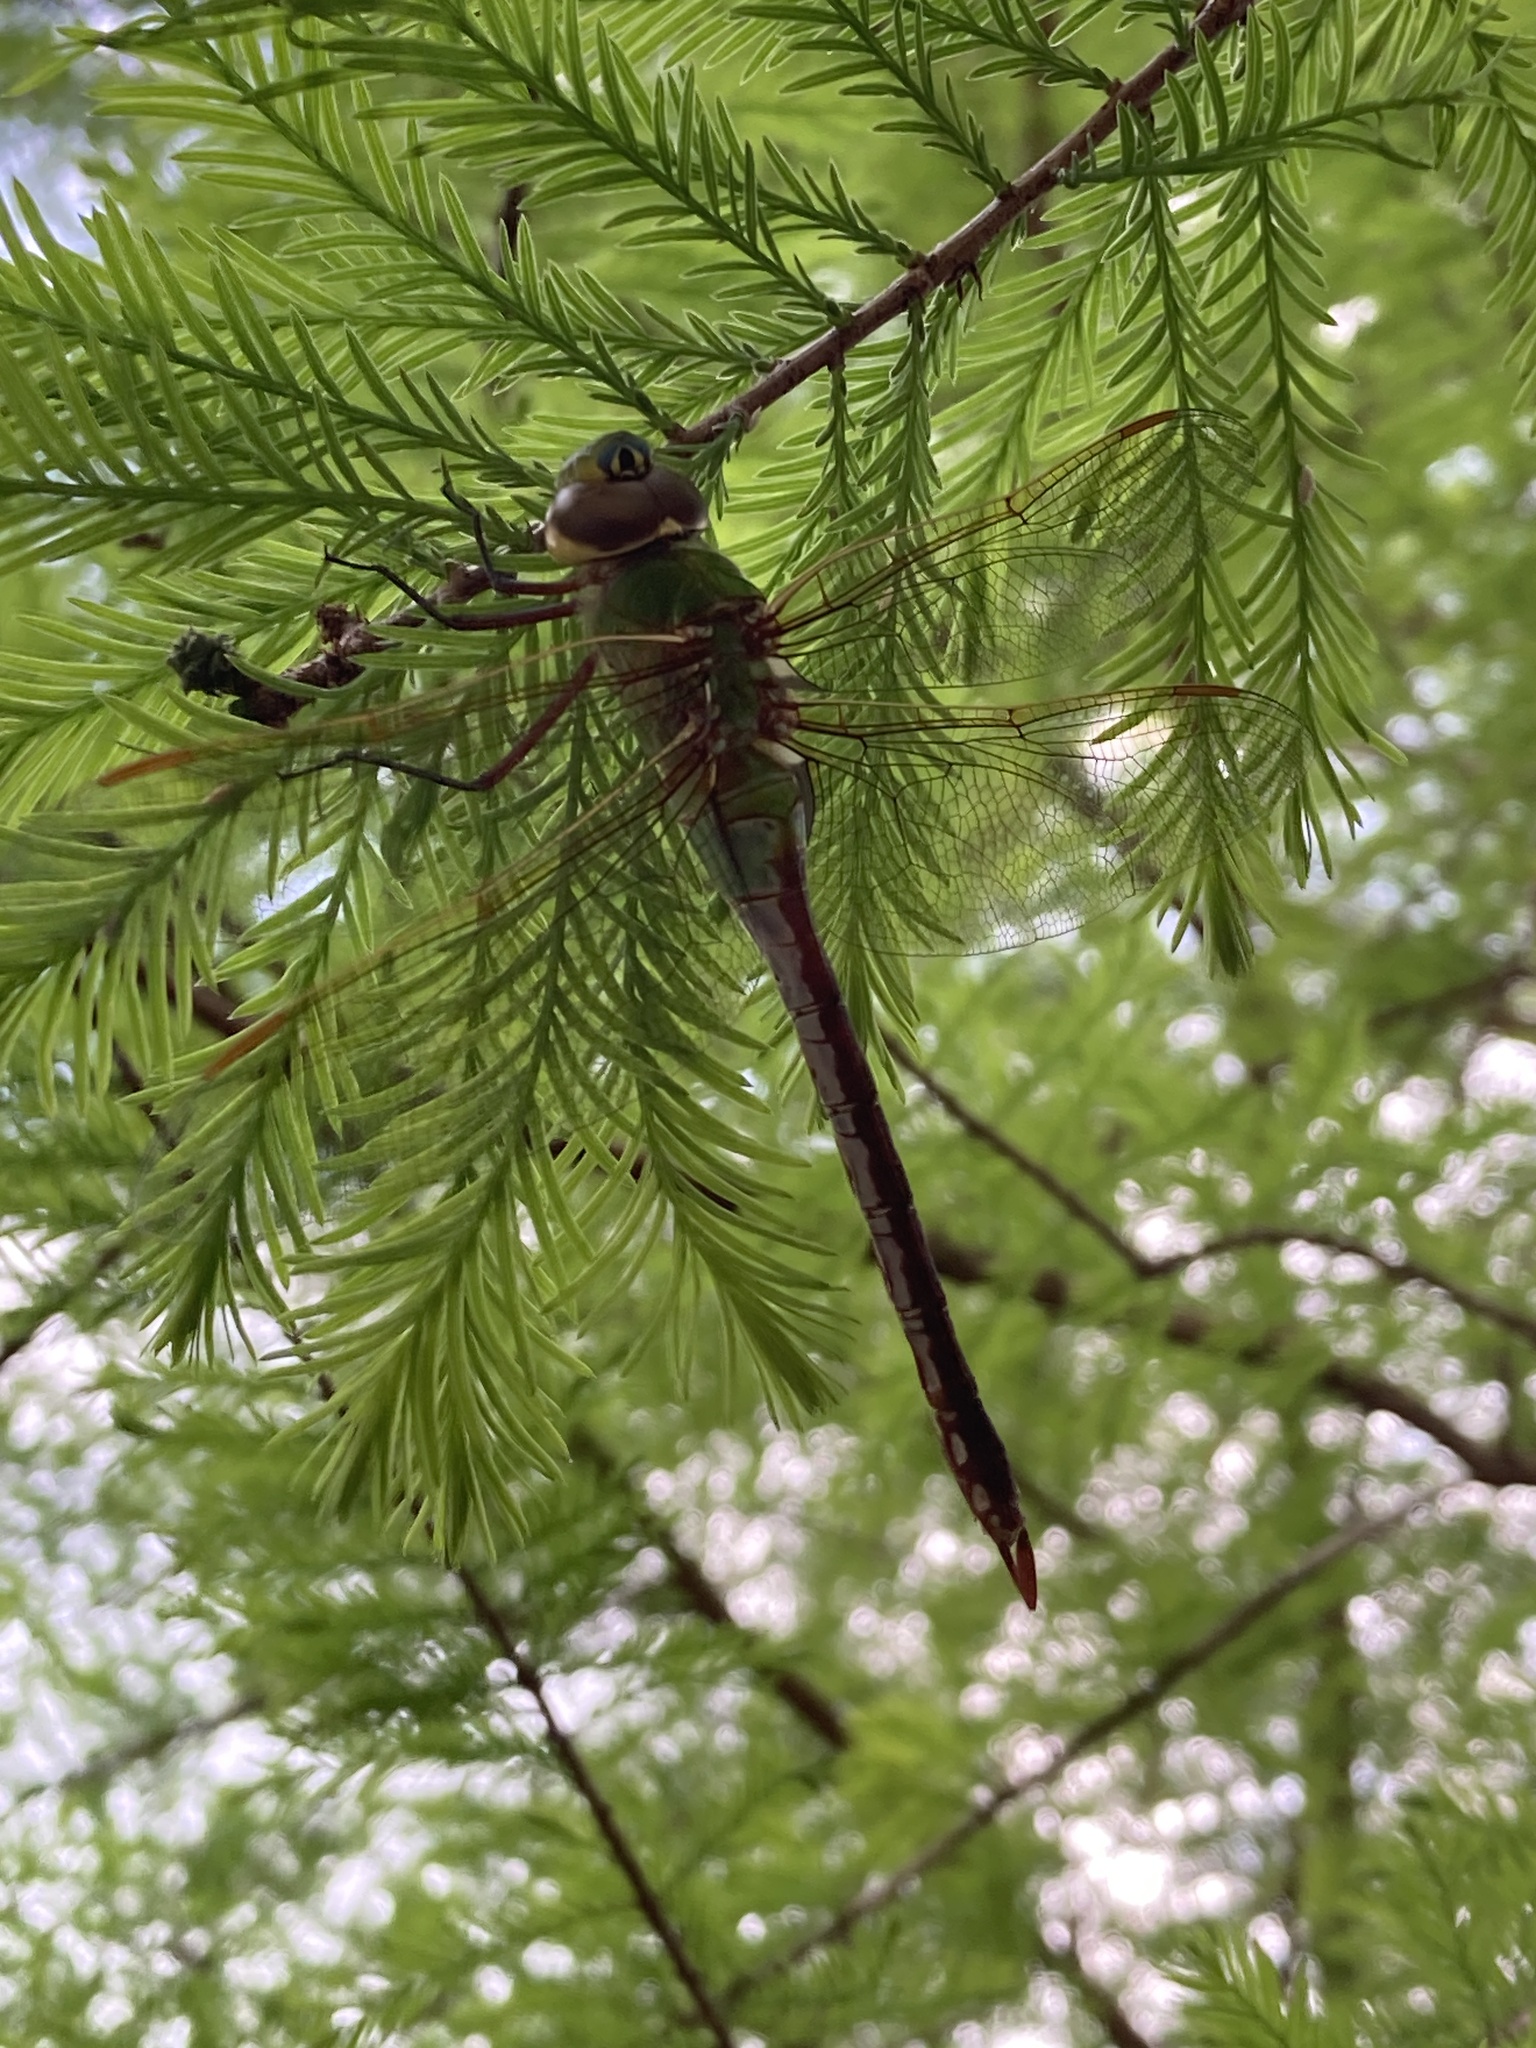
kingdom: Animalia
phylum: Arthropoda
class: Insecta
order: Odonata
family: Aeshnidae
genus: Anax
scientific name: Anax junius
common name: Common green darner
